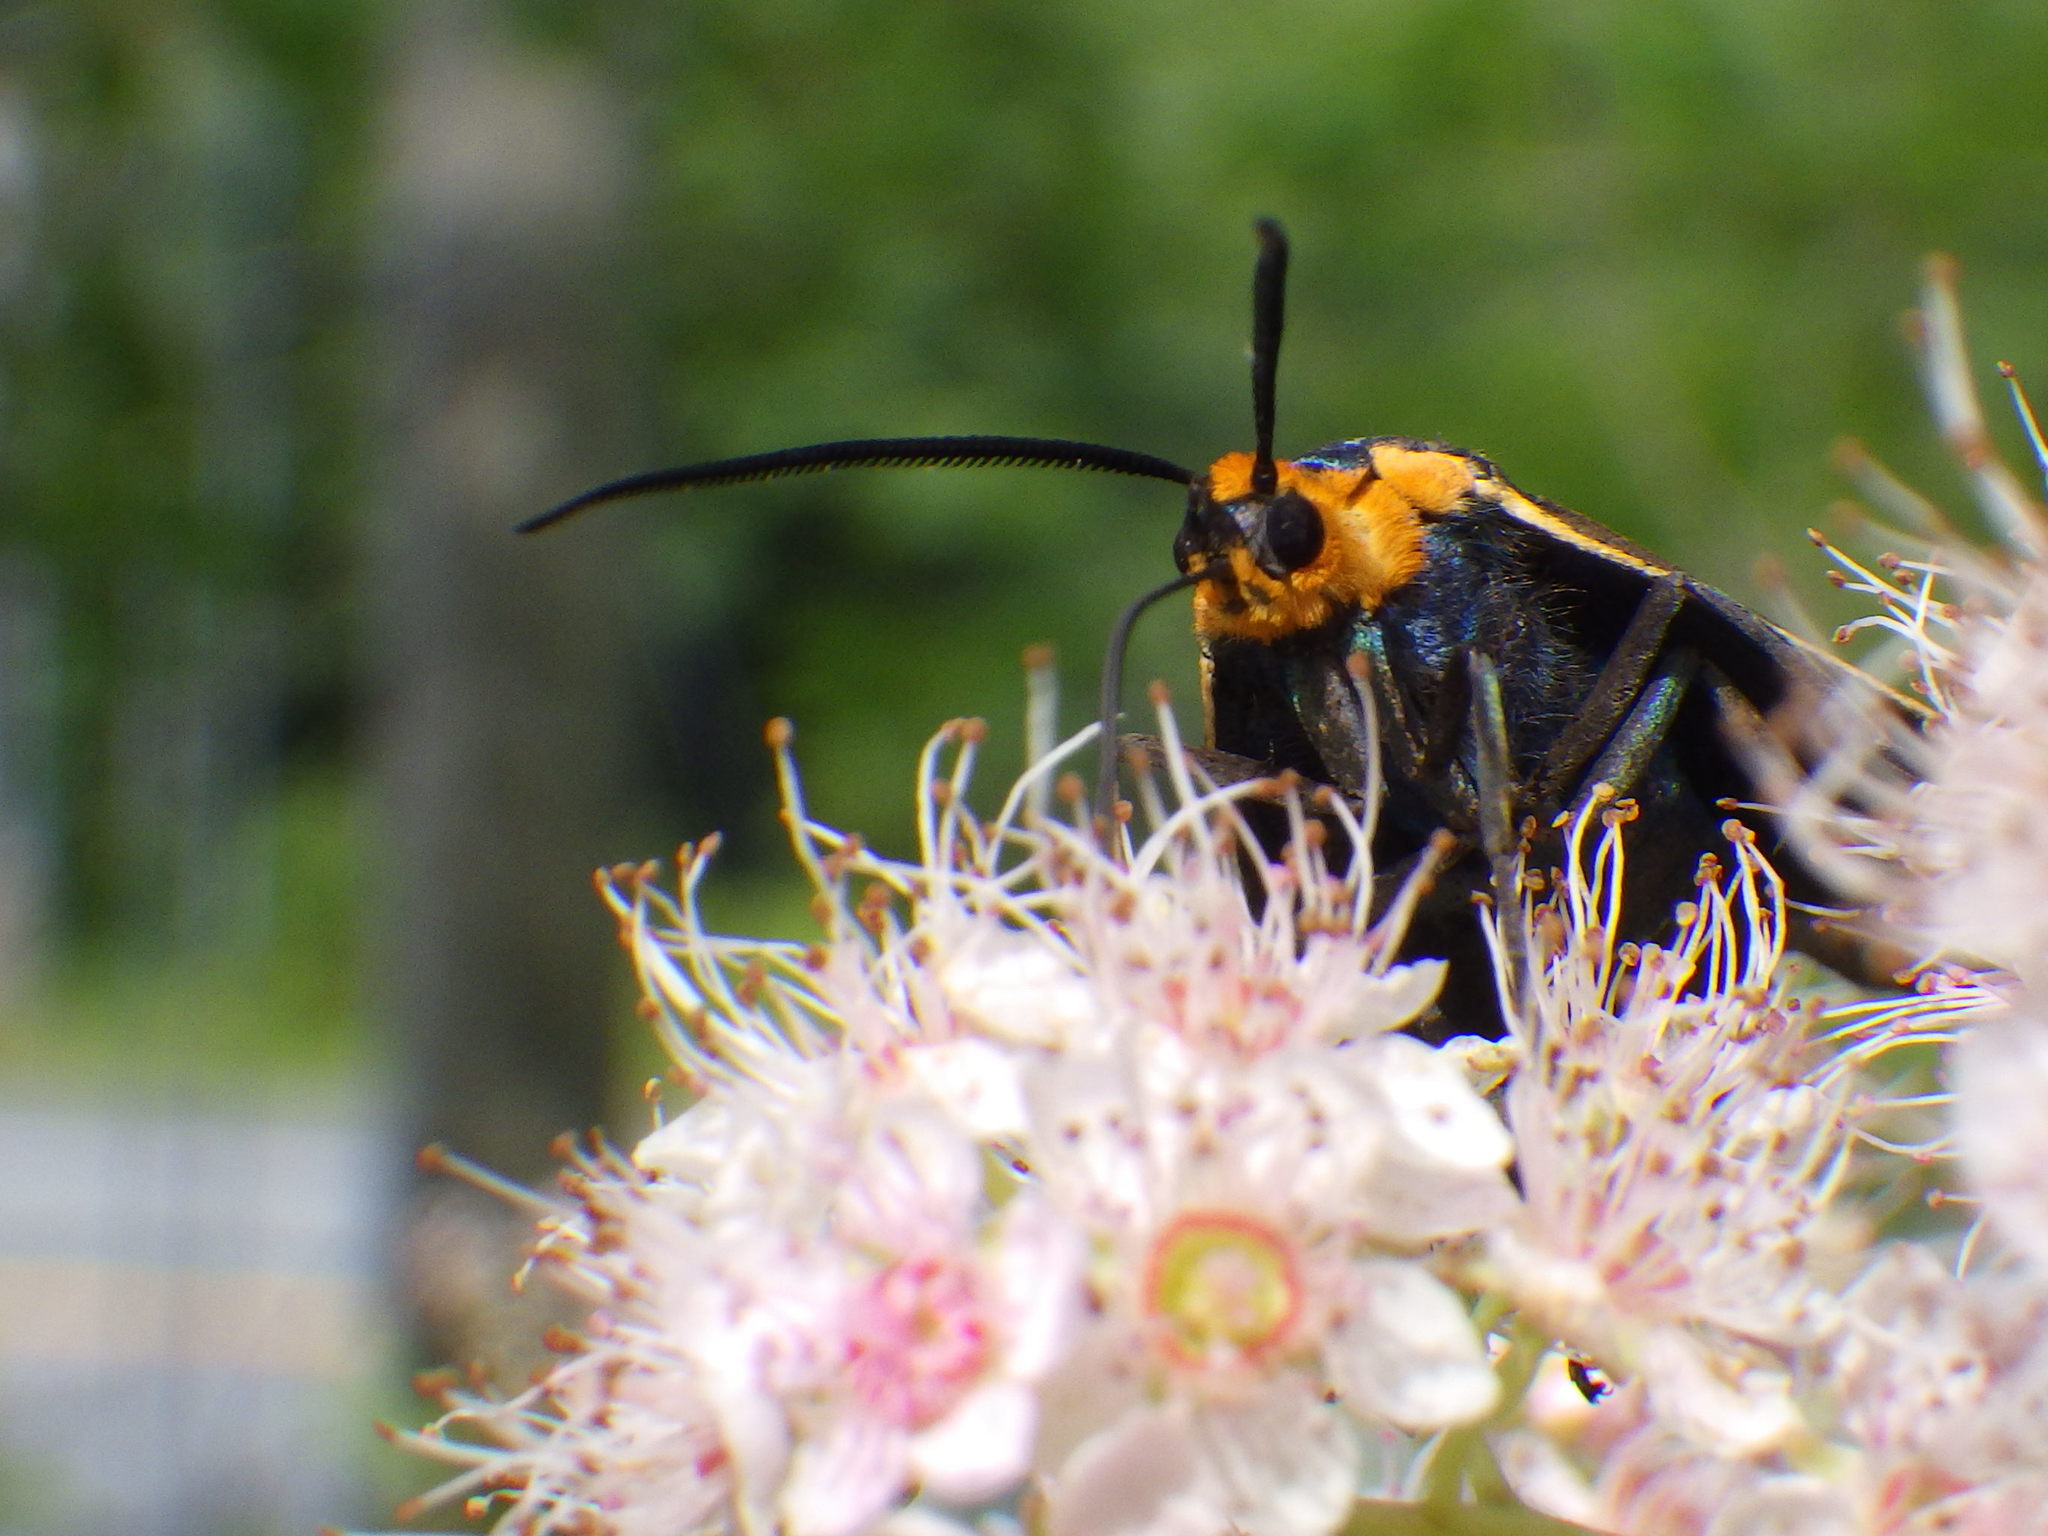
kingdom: Animalia
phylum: Arthropoda
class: Insecta
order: Lepidoptera
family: Erebidae
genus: Ctenucha
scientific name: Ctenucha virginica
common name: Virginia ctenucha moth
